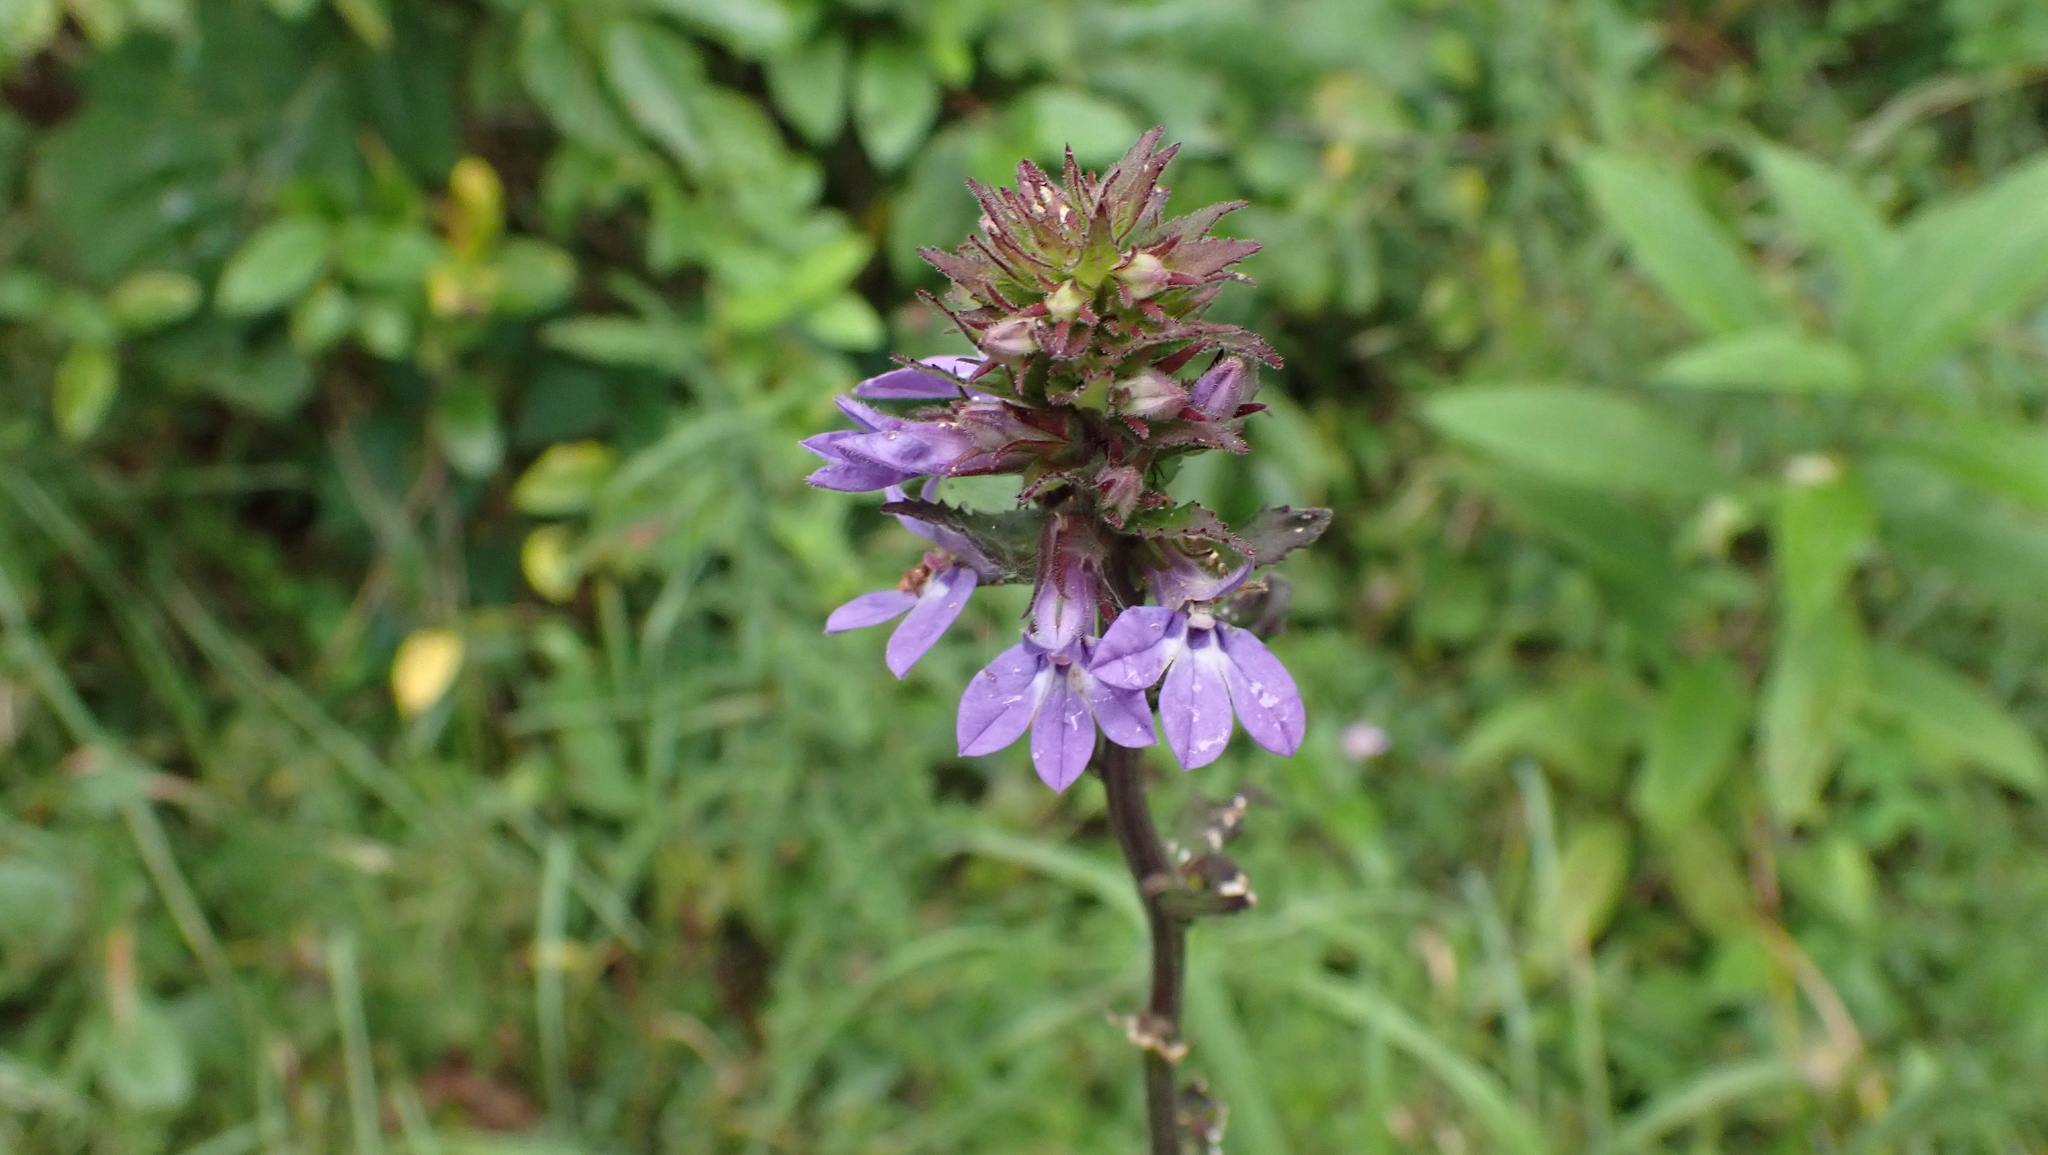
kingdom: Plantae
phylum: Tracheophyta
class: Magnoliopsida
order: Asterales
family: Campanulaceae
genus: Lobelia
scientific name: Lobelia puberula
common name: Purple dewdrop
